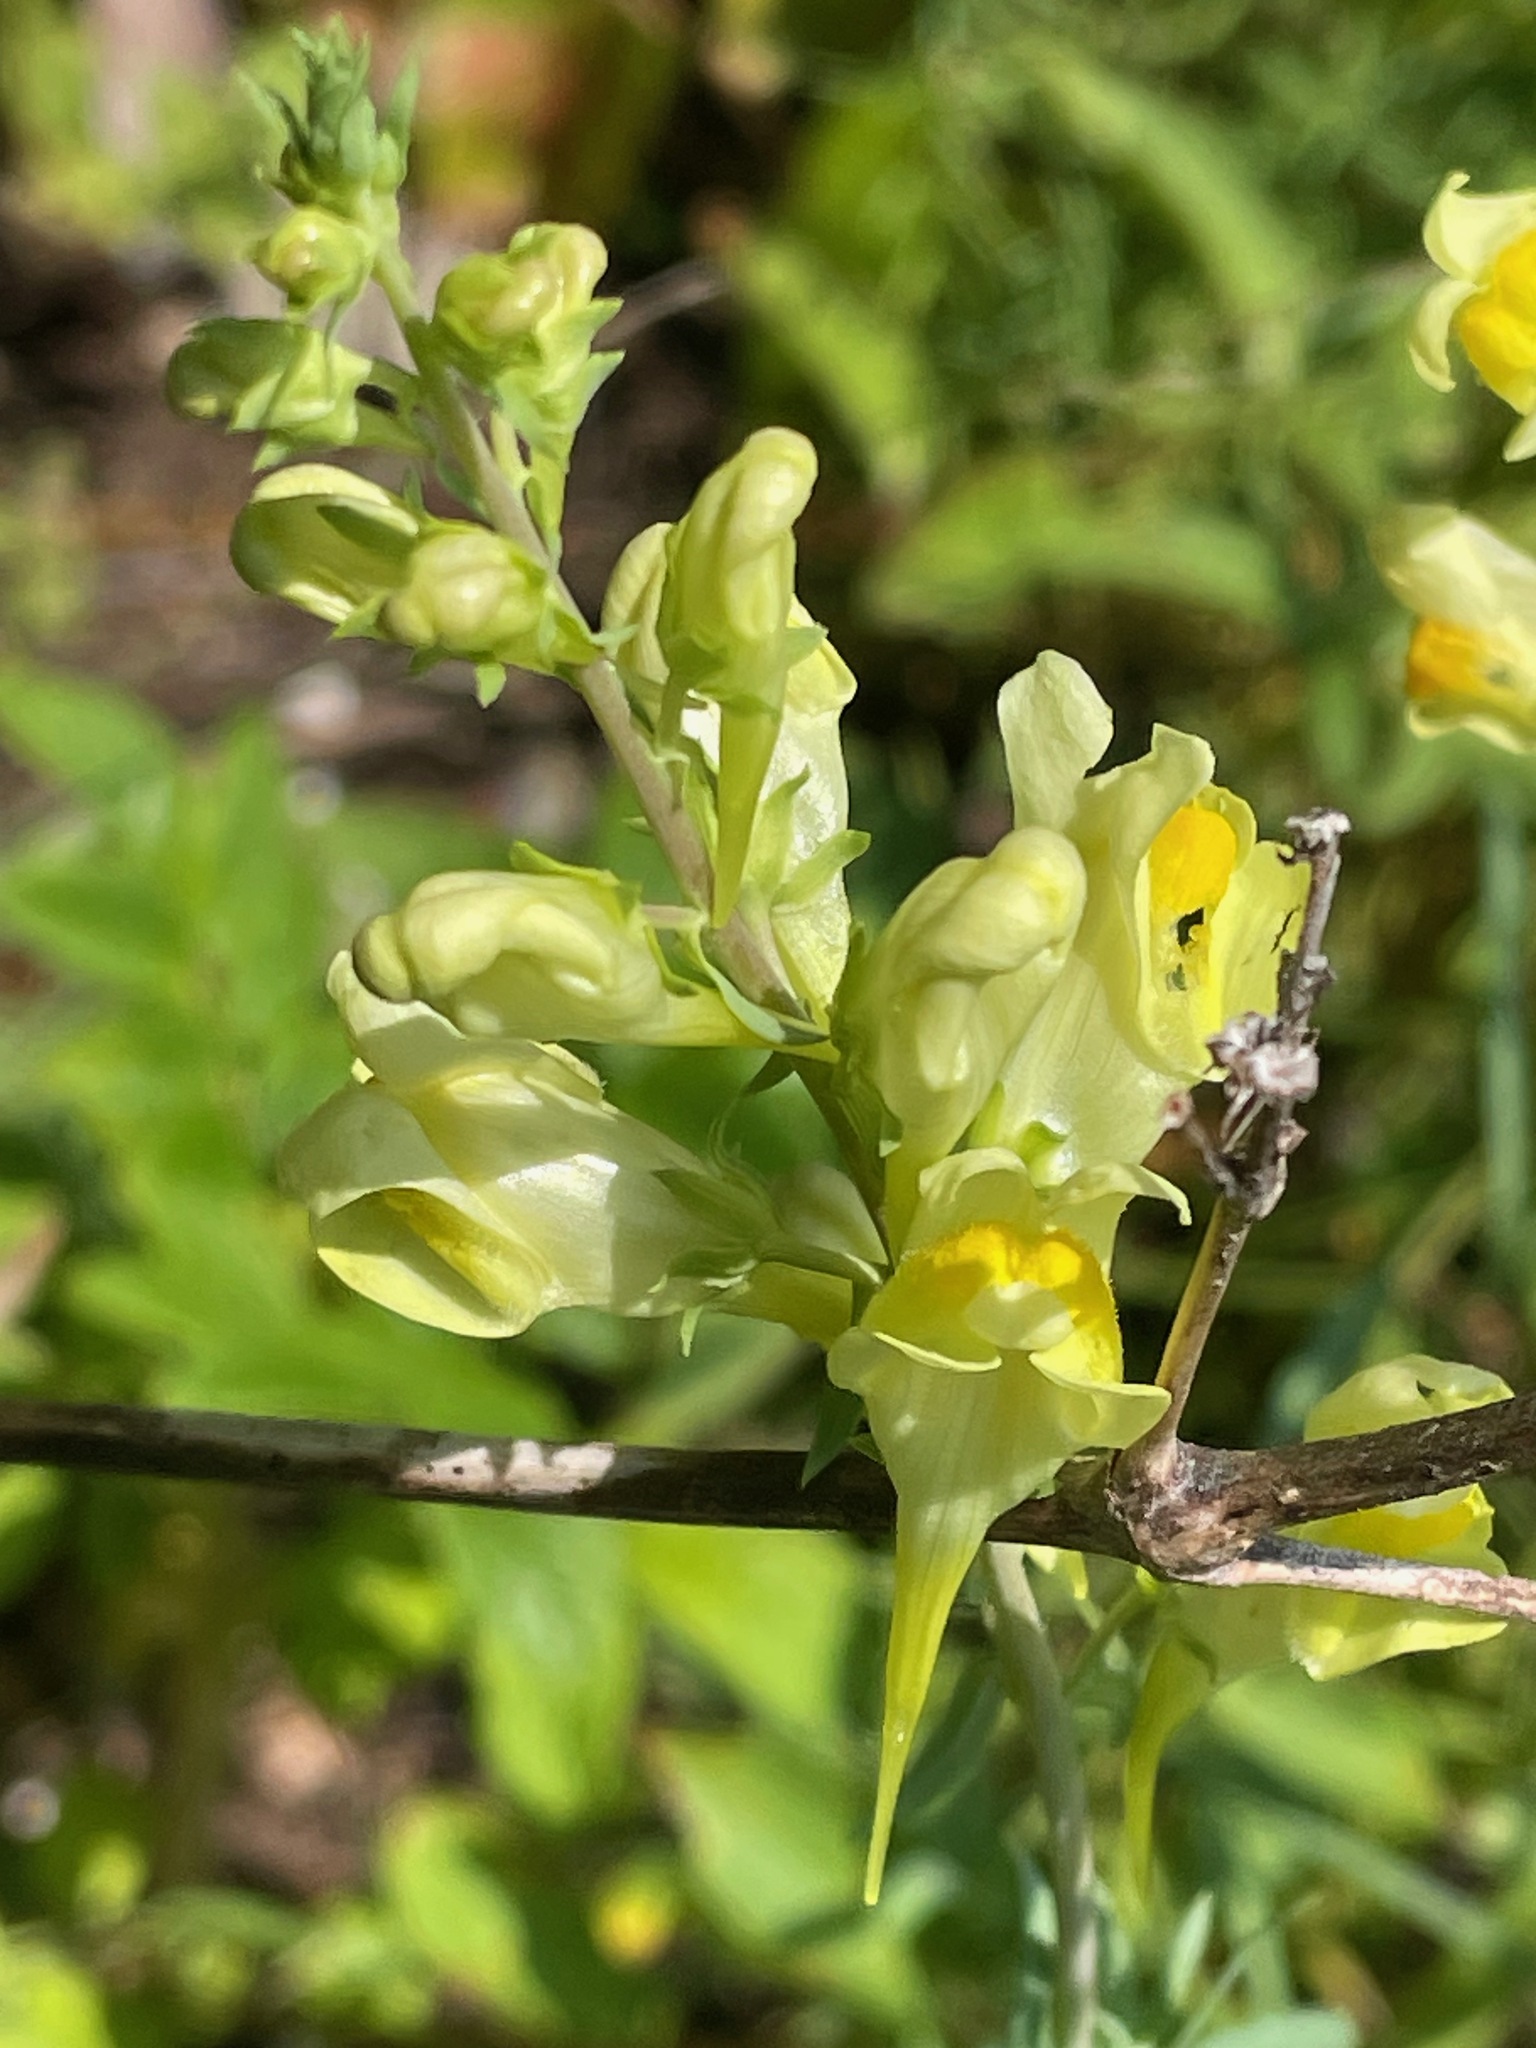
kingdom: Plantae
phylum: Tracheophyta
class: Magnoliopsida
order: Lamiales
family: Plantaginaceae
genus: Linaria
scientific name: Linaria vulgaris
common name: Butter and eggs
